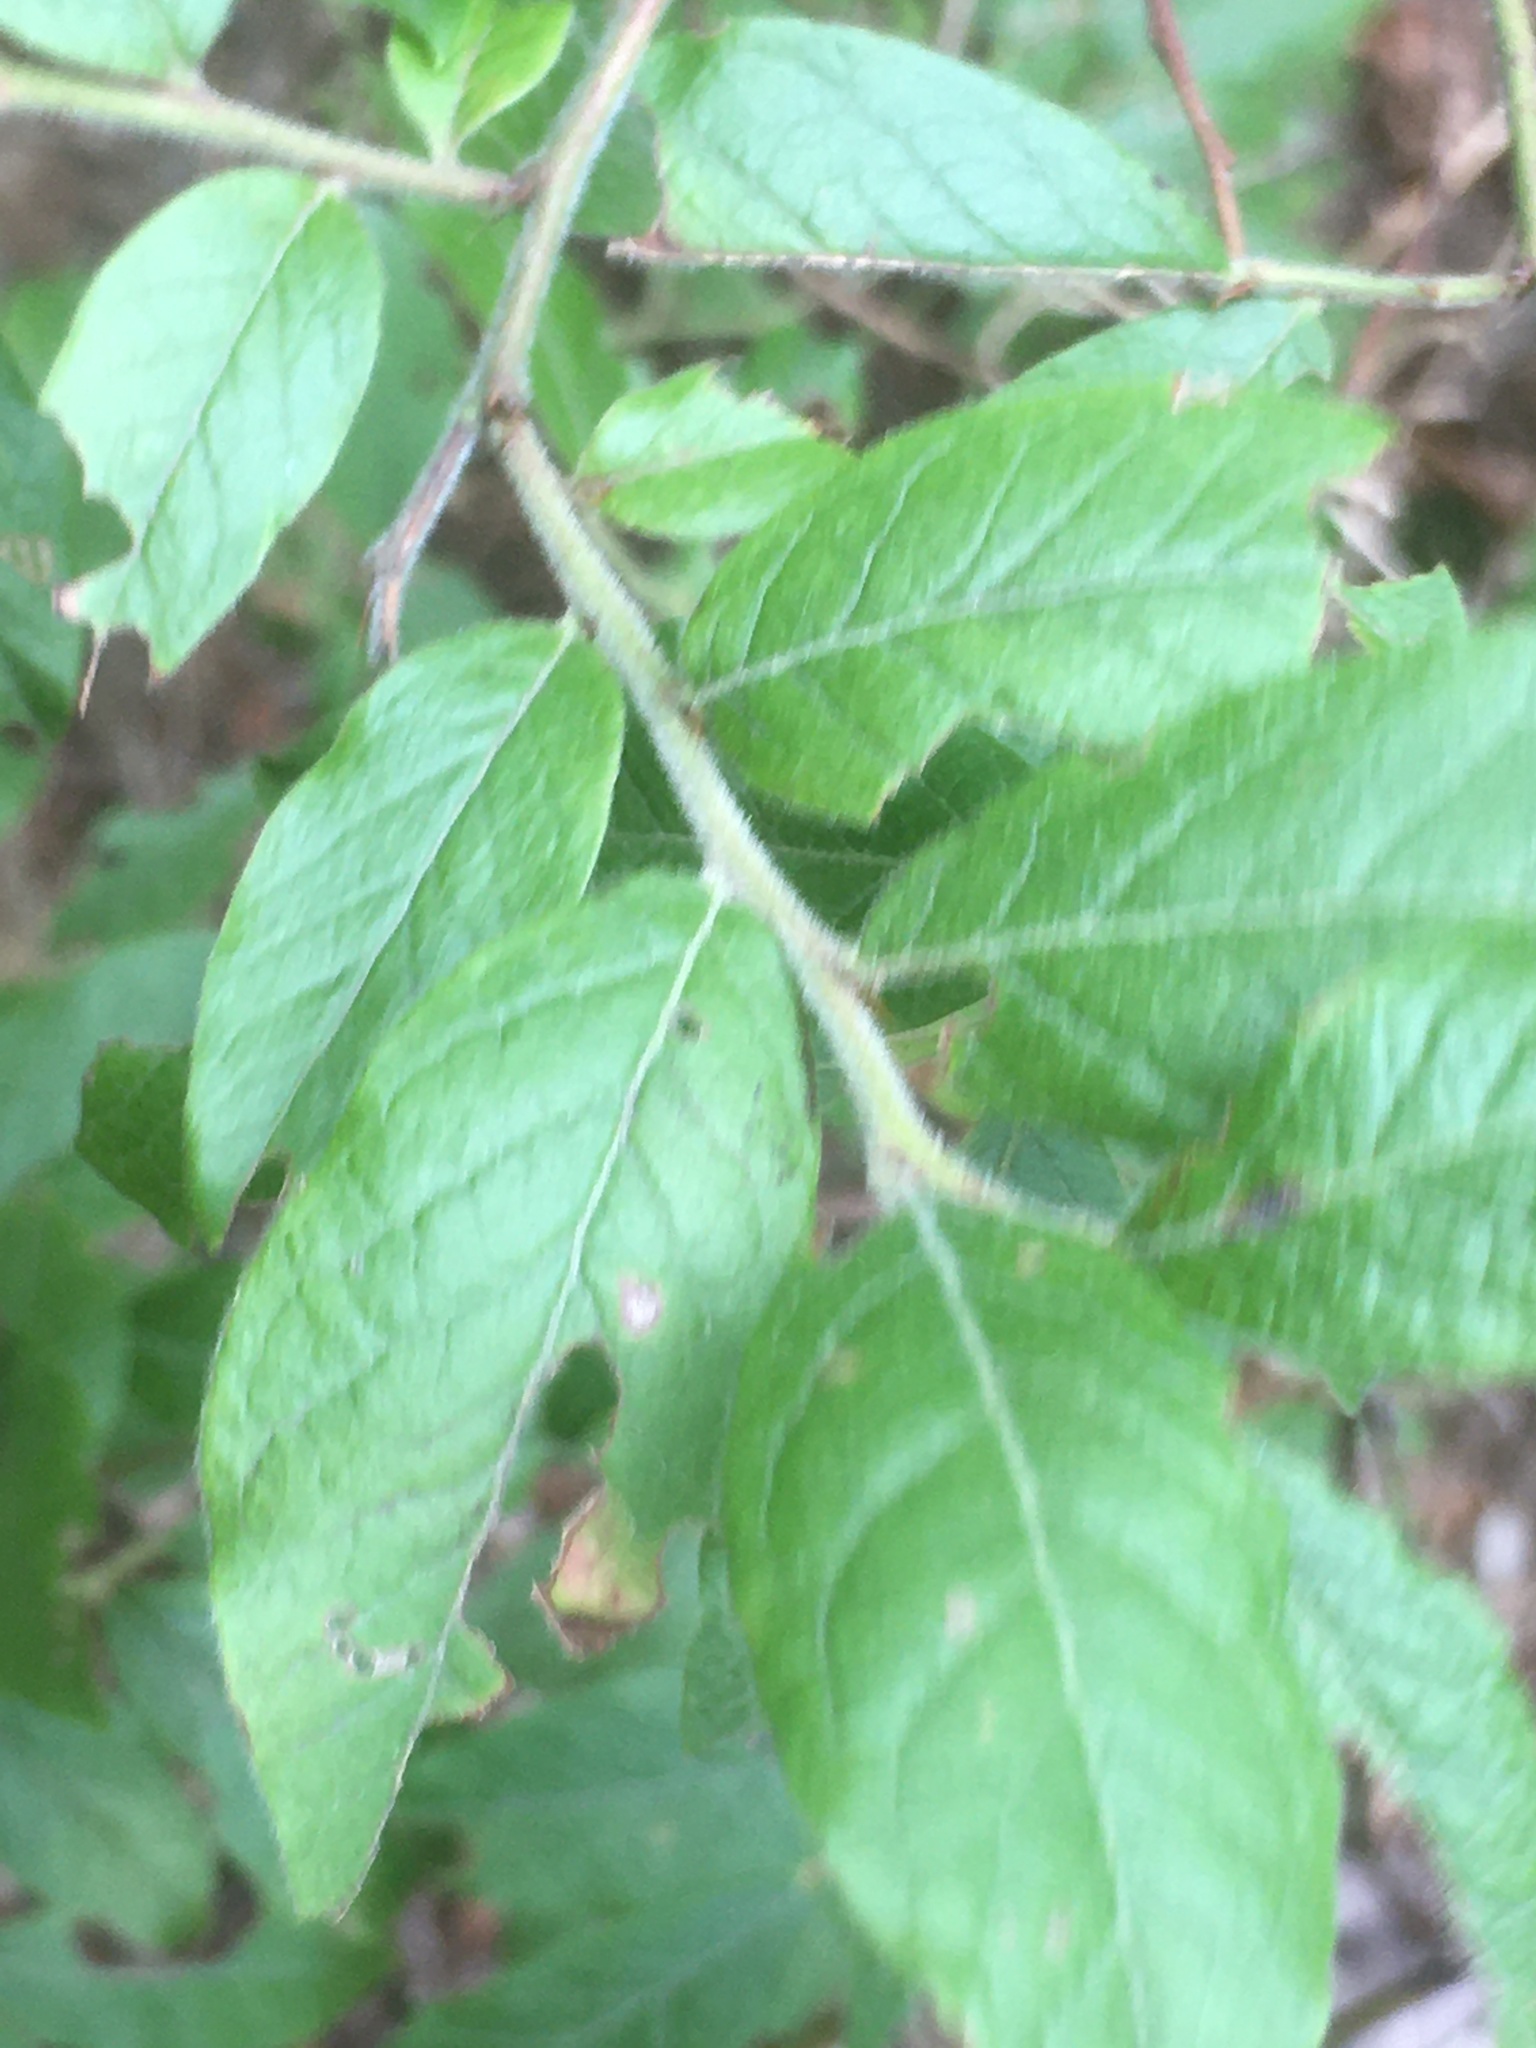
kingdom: Plantae
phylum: Tracheophyta
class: Magnoliopsida
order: Ericales
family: Ericaceae
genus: Vaccinium
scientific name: Vaccinium myrtilloides
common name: Canada blueberry
